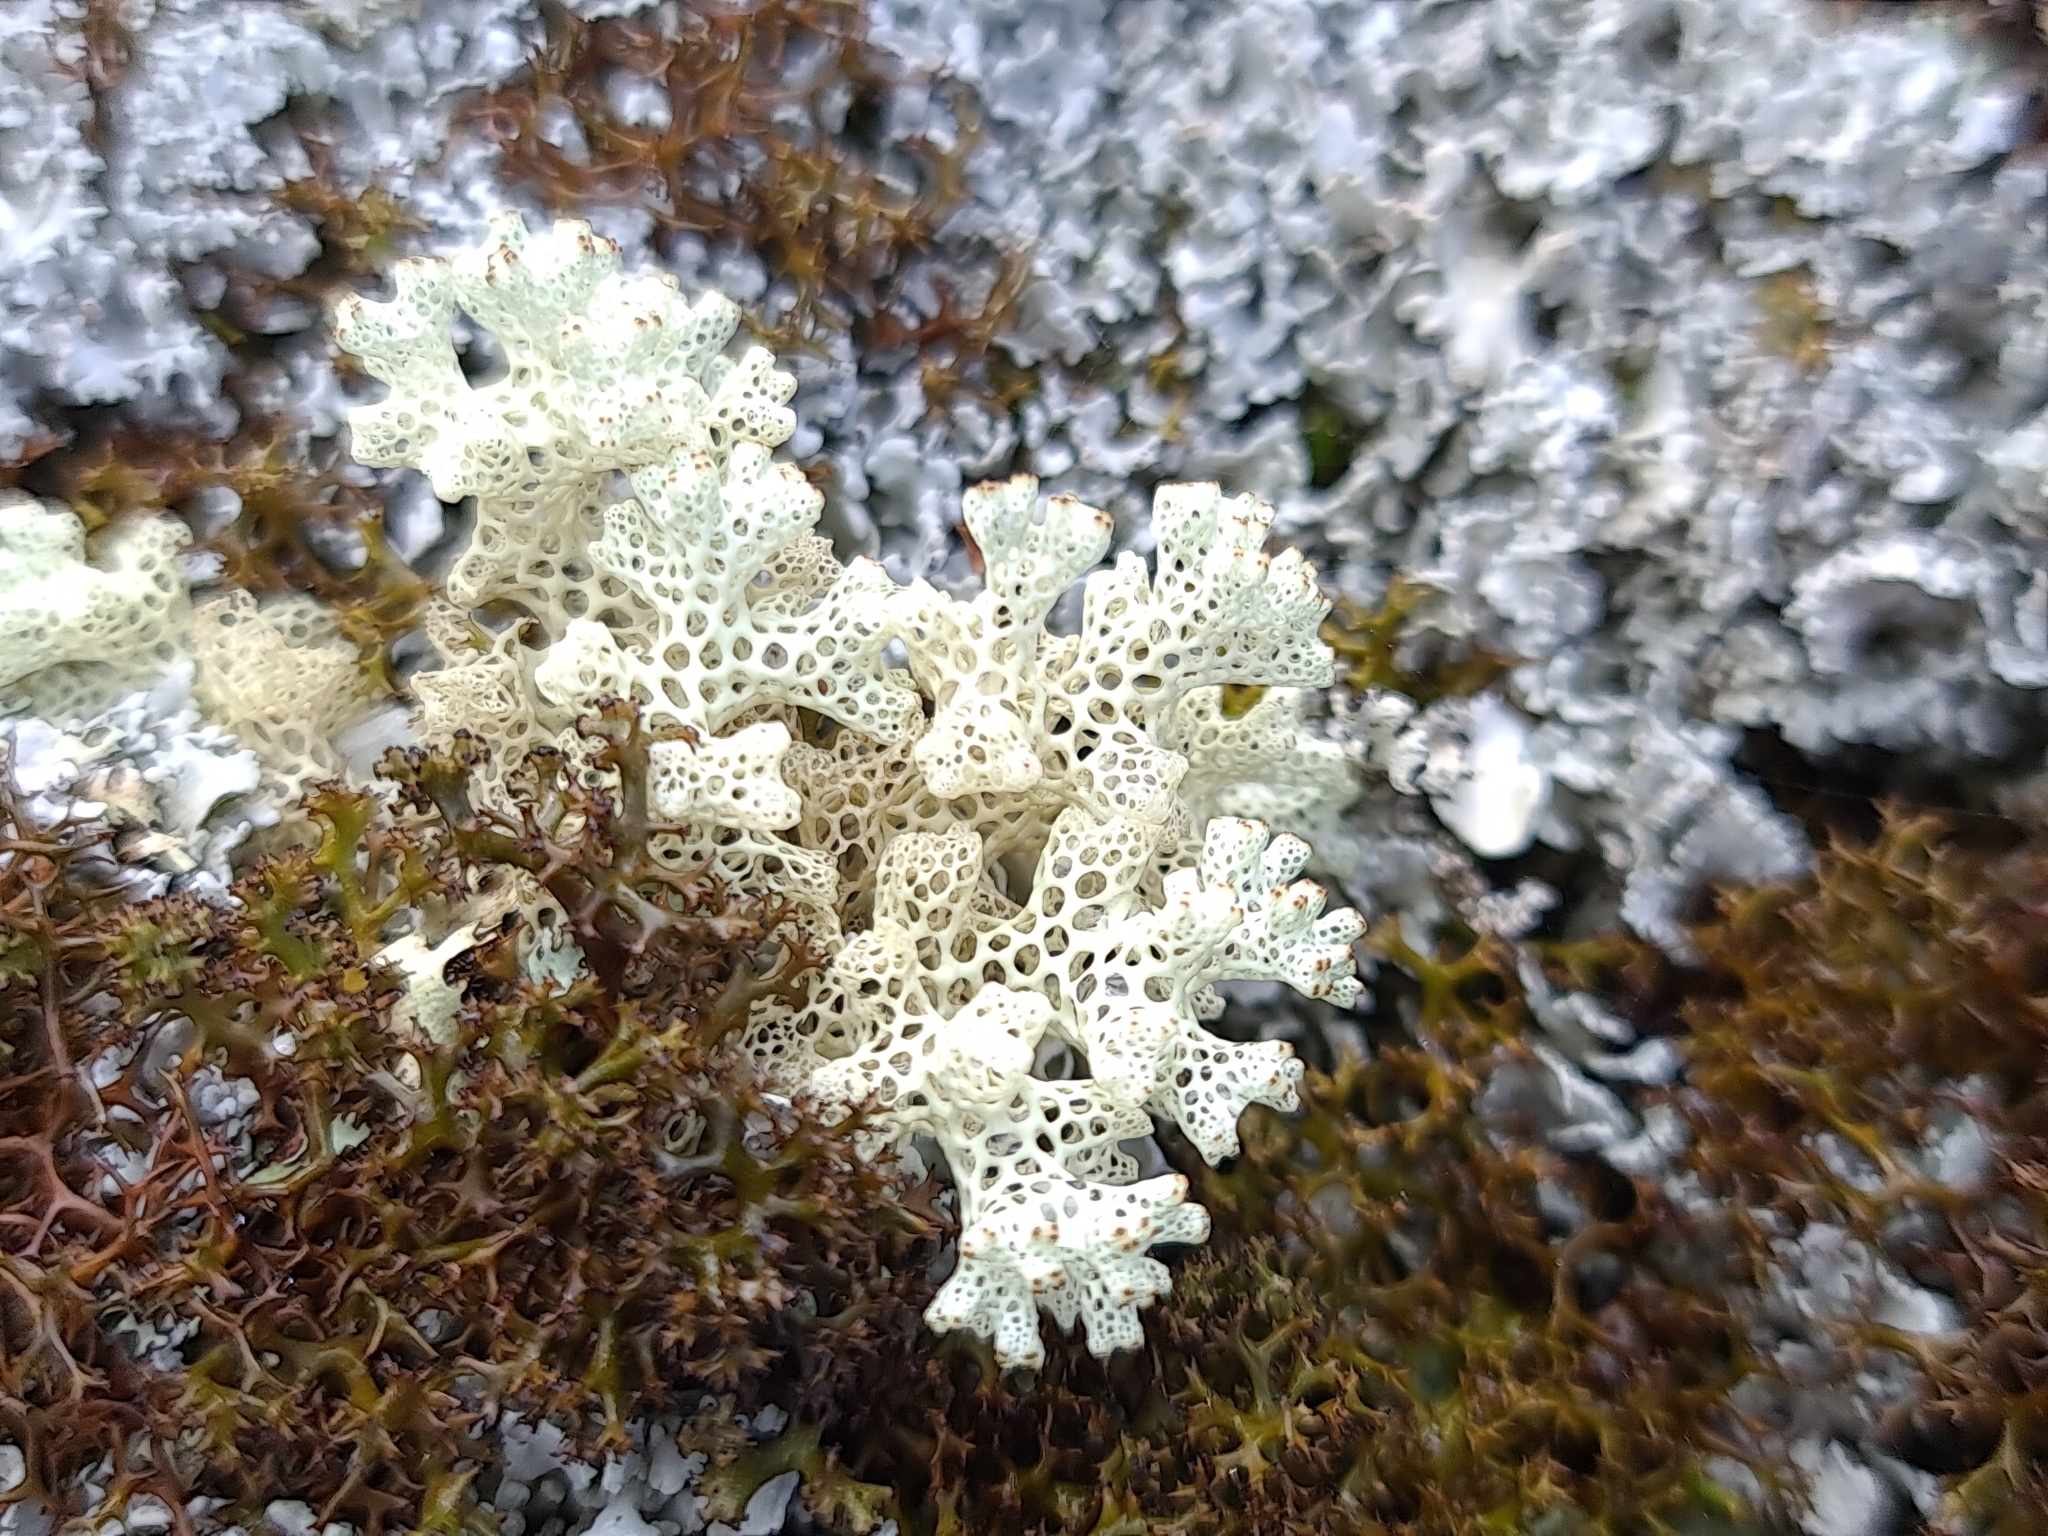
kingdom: Fungi
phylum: Ascomycota
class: Lecanoromycetes
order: Lecanorales
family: Cladoniaceae
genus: Pulchrocladia
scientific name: Pulchrocladia ferdinandii
